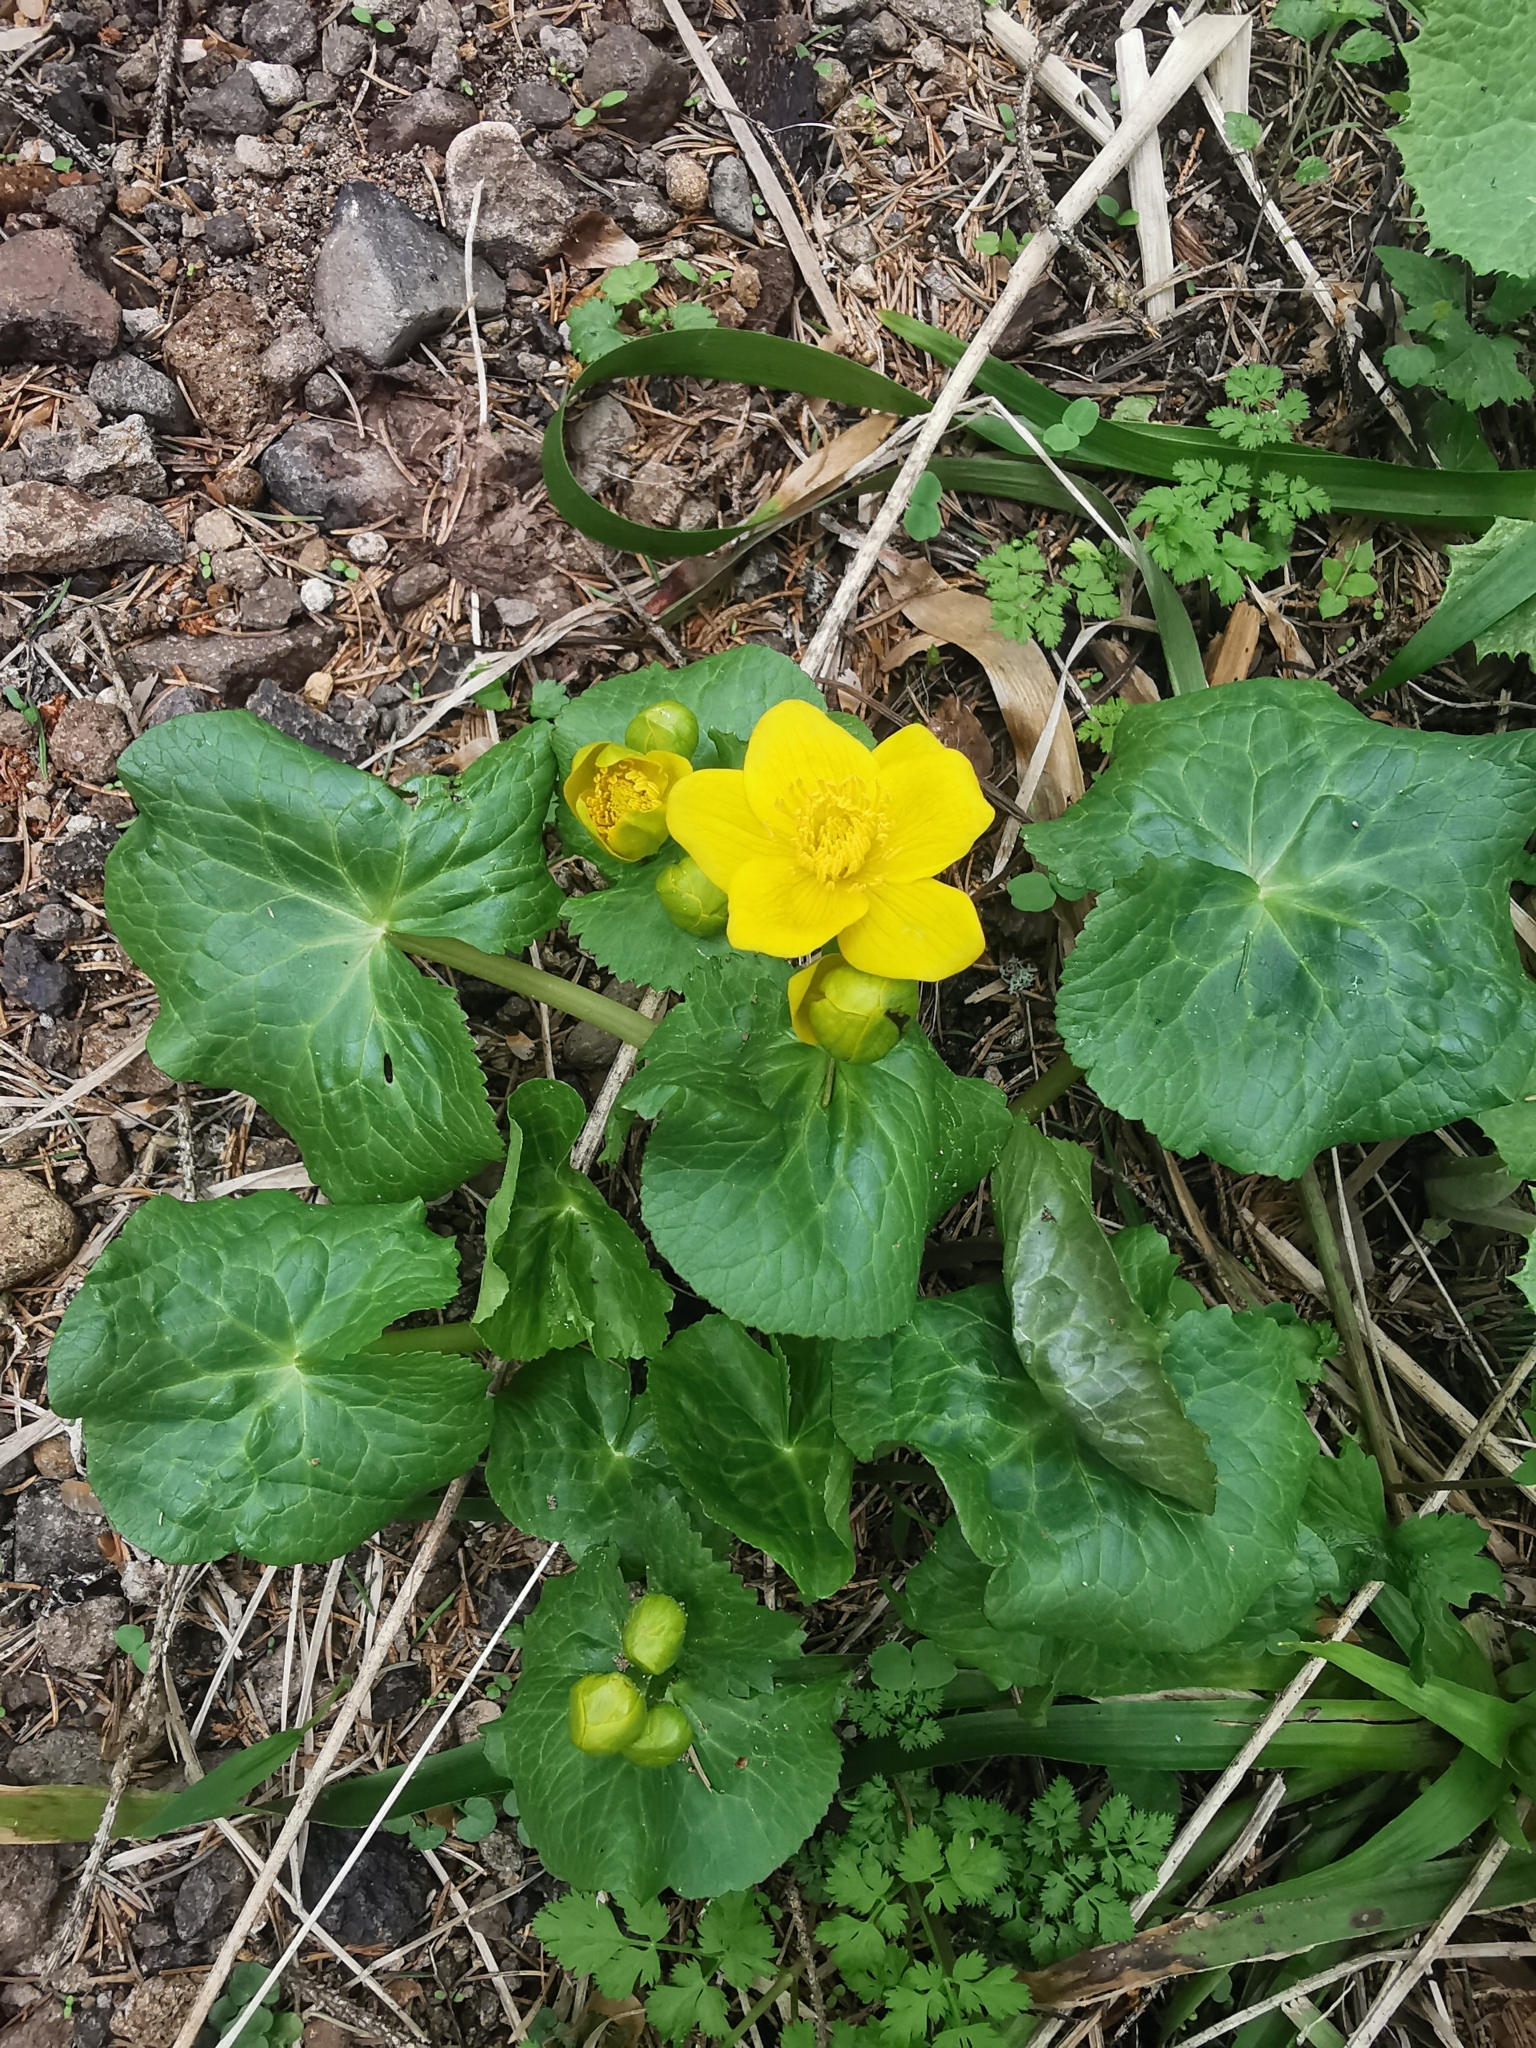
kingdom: Plantae
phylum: Tracheophyta
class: Magnoliopsida
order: Ranunculales
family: Ranunculaceae
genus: Caltha
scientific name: Caltha palustris
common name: Marsh marigold
